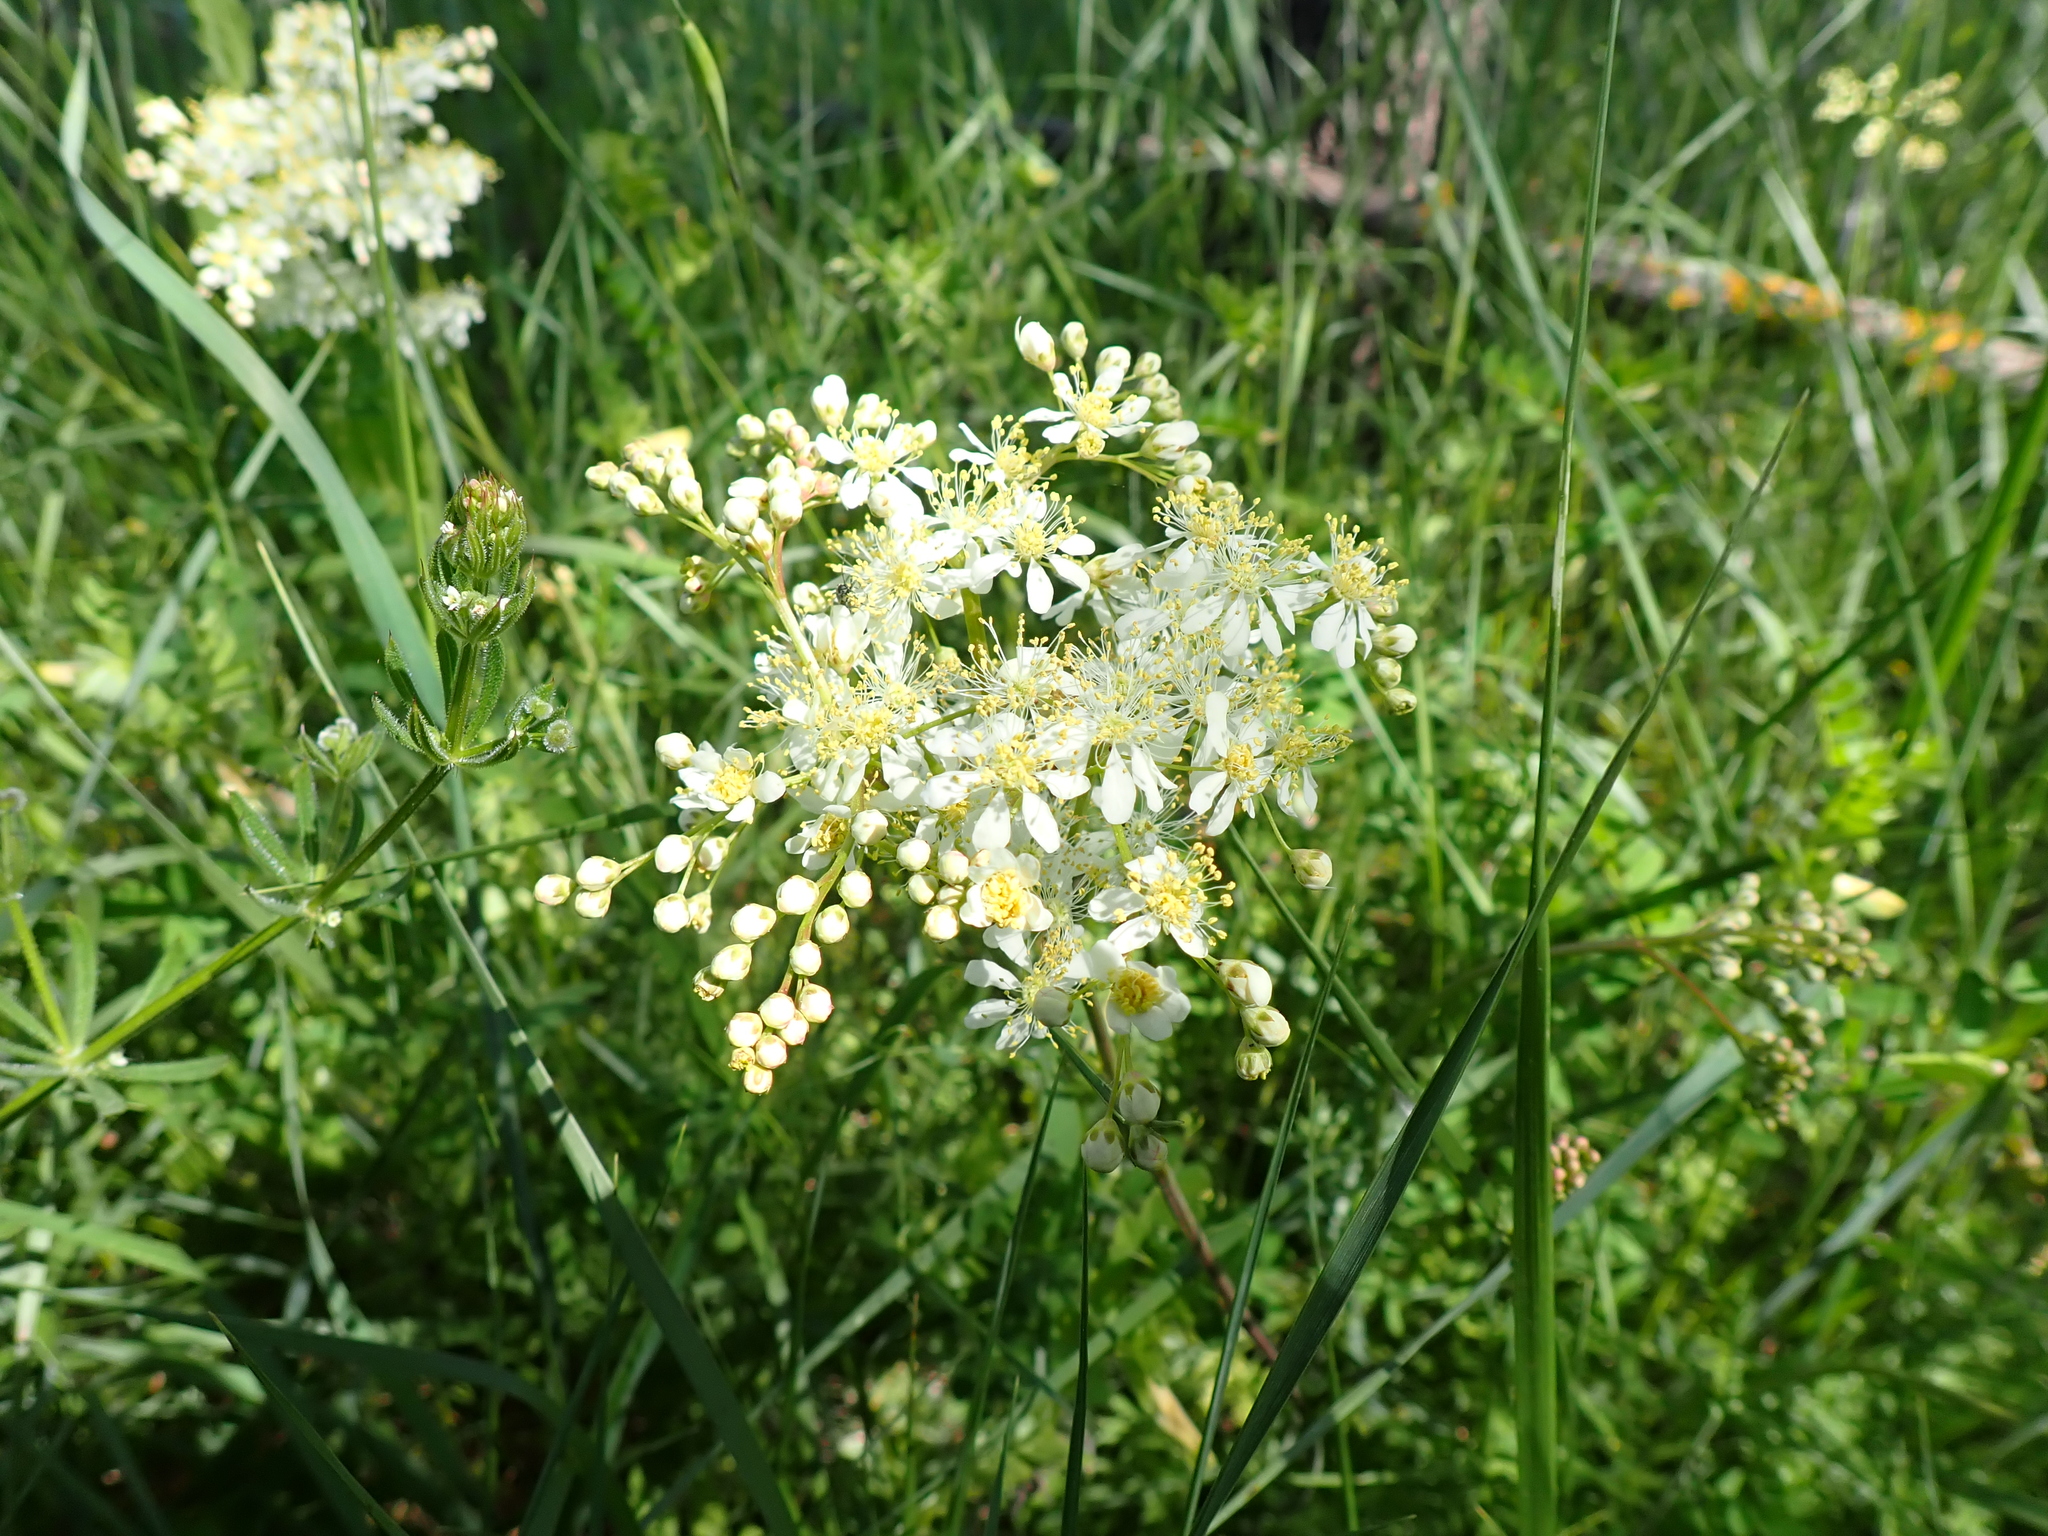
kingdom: Plantae
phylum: Tracheophyta
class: Magnoliopsida
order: Rosales
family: Rosaceae
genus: Filipendula
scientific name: Filipendula vulgaris
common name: Dropwort
